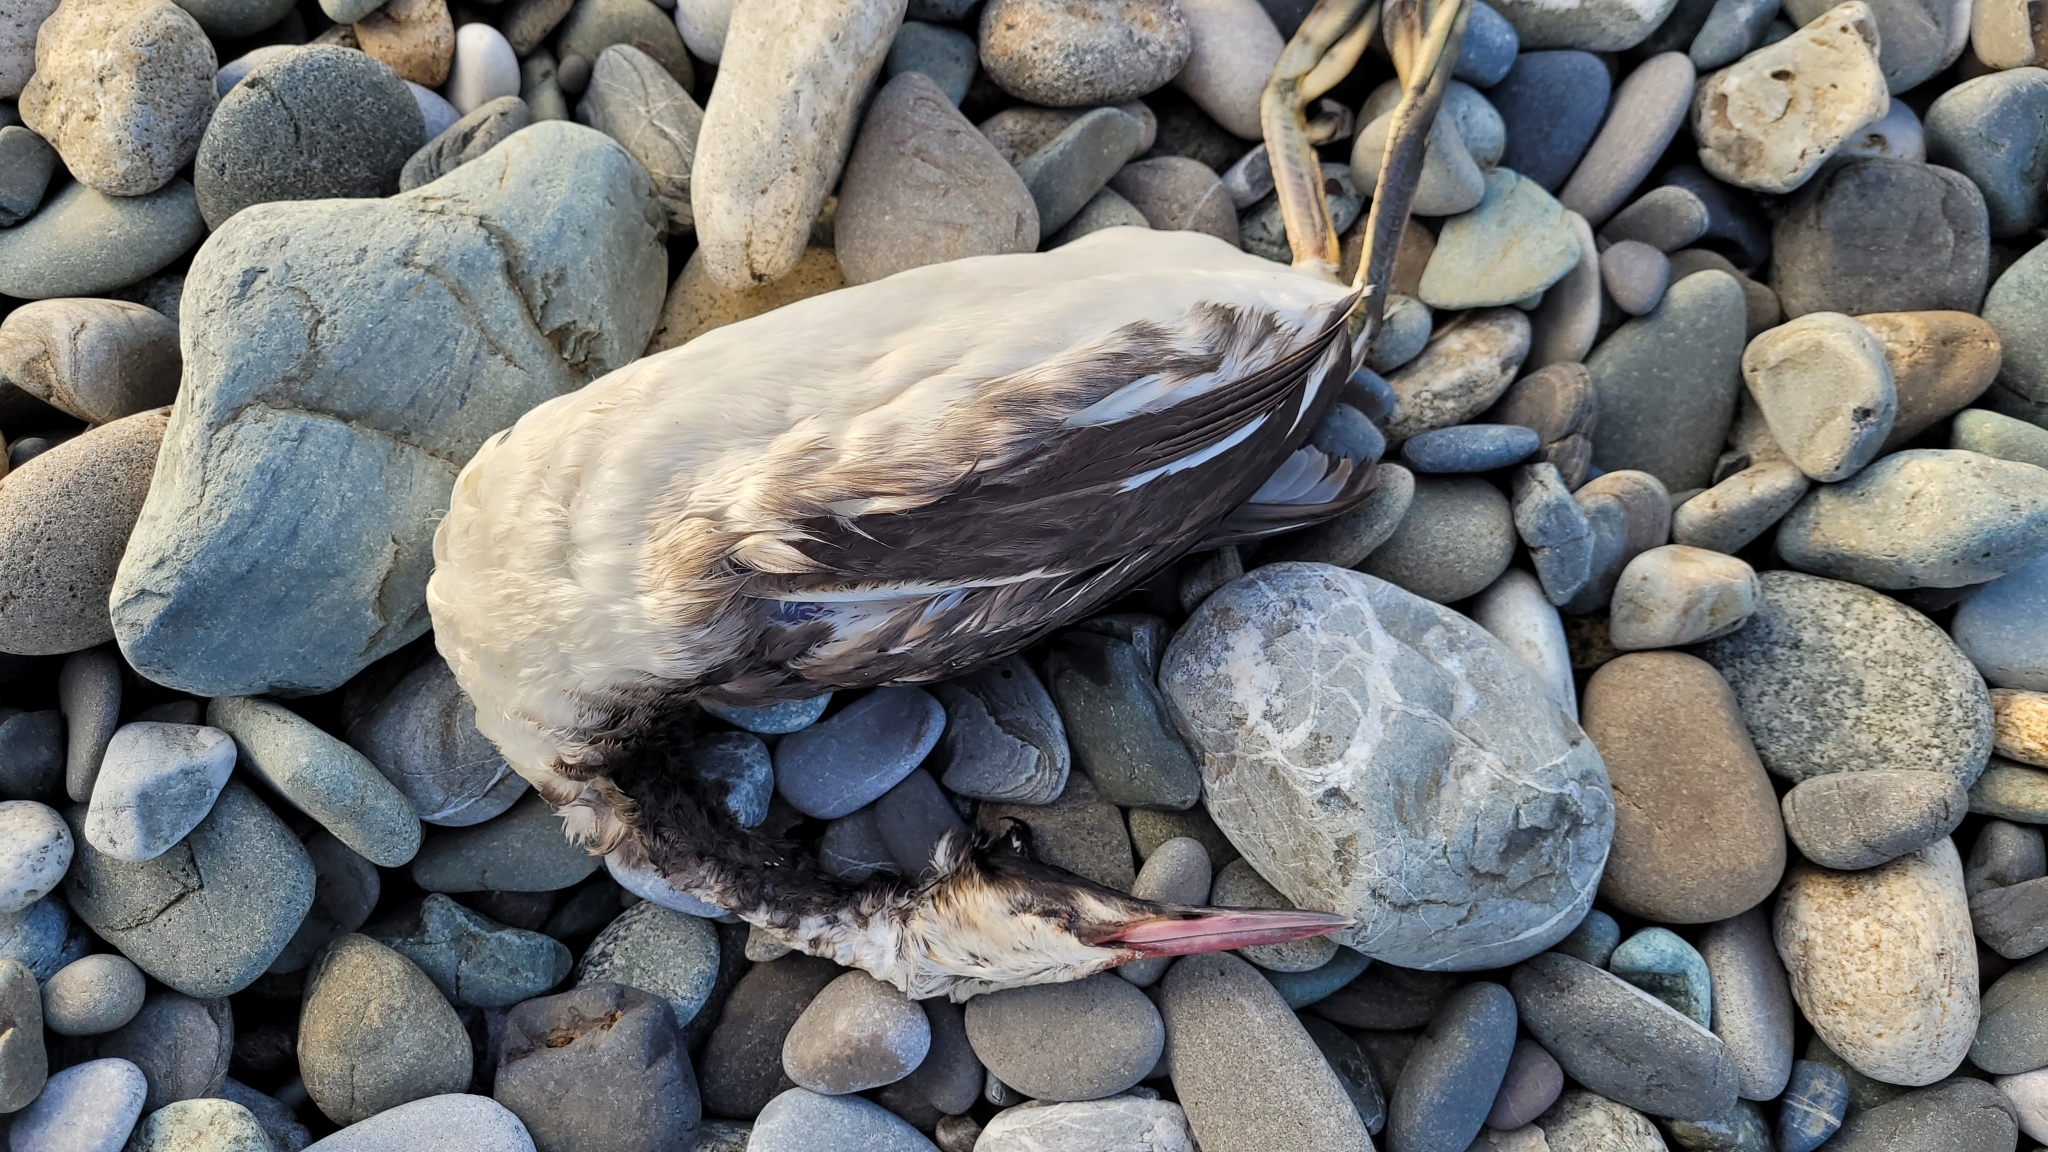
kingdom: Animalia
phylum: Chordata
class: Aves
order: Podicipediformes
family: Podicipedidae
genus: Podiceps
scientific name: Podiceps cristatus
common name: Great crested grebe
